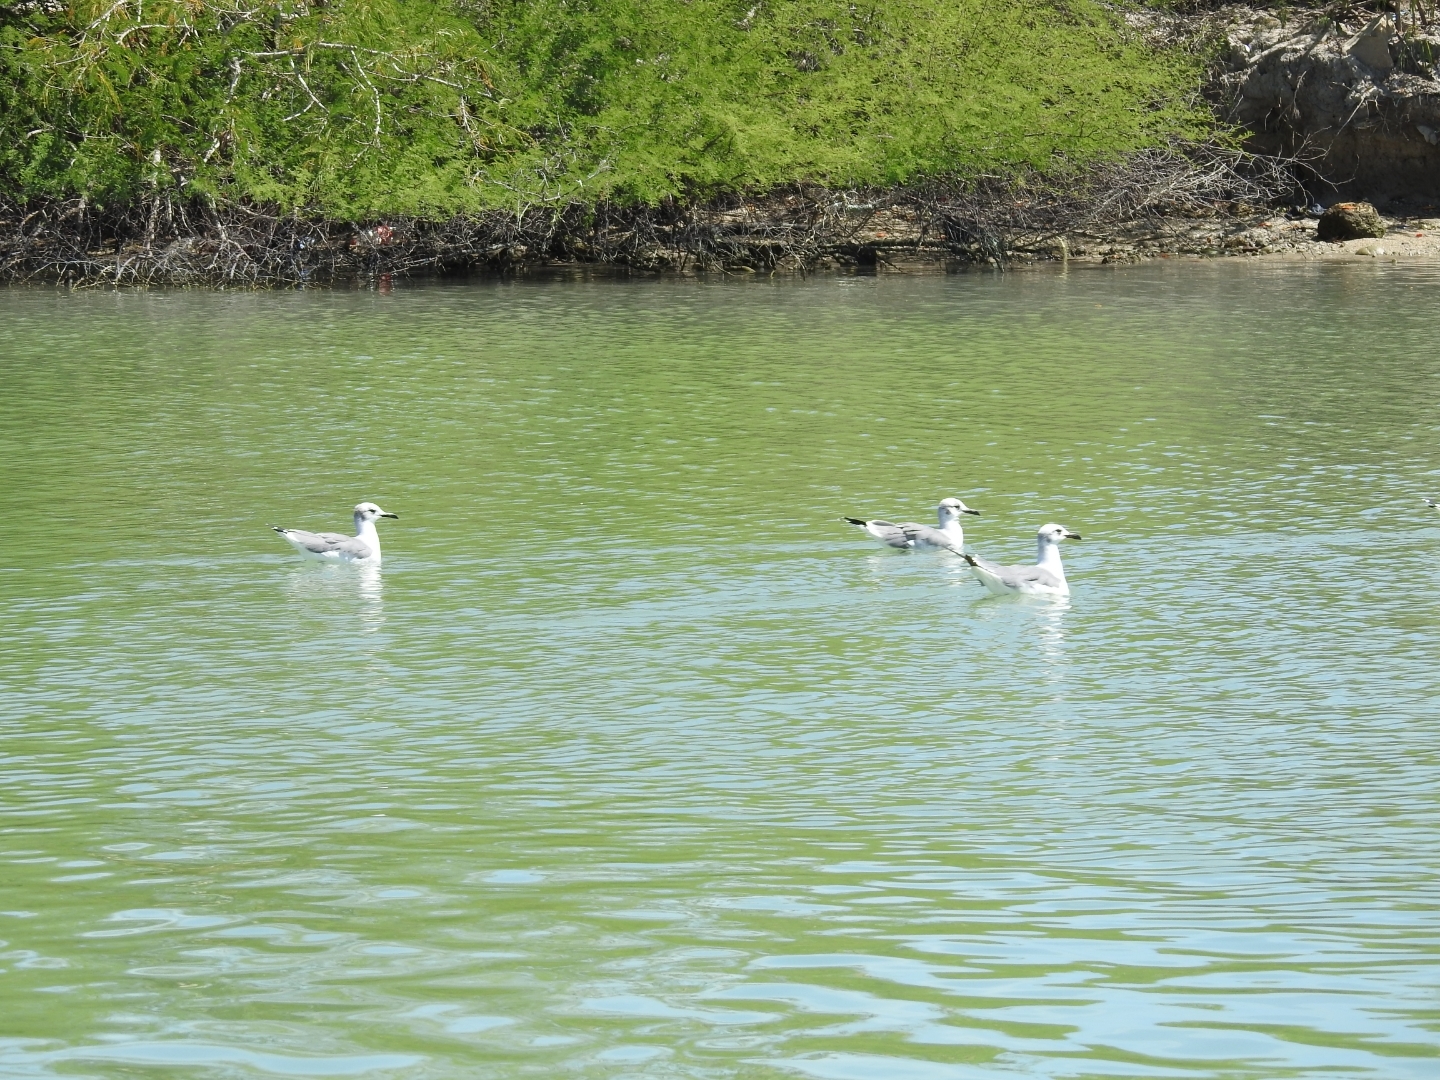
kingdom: Animalia
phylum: Chordata
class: Aves
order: Charadriiformes
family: Laridae
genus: Leucophaeus
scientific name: Leucophaeus atricilla
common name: Laughing gull
